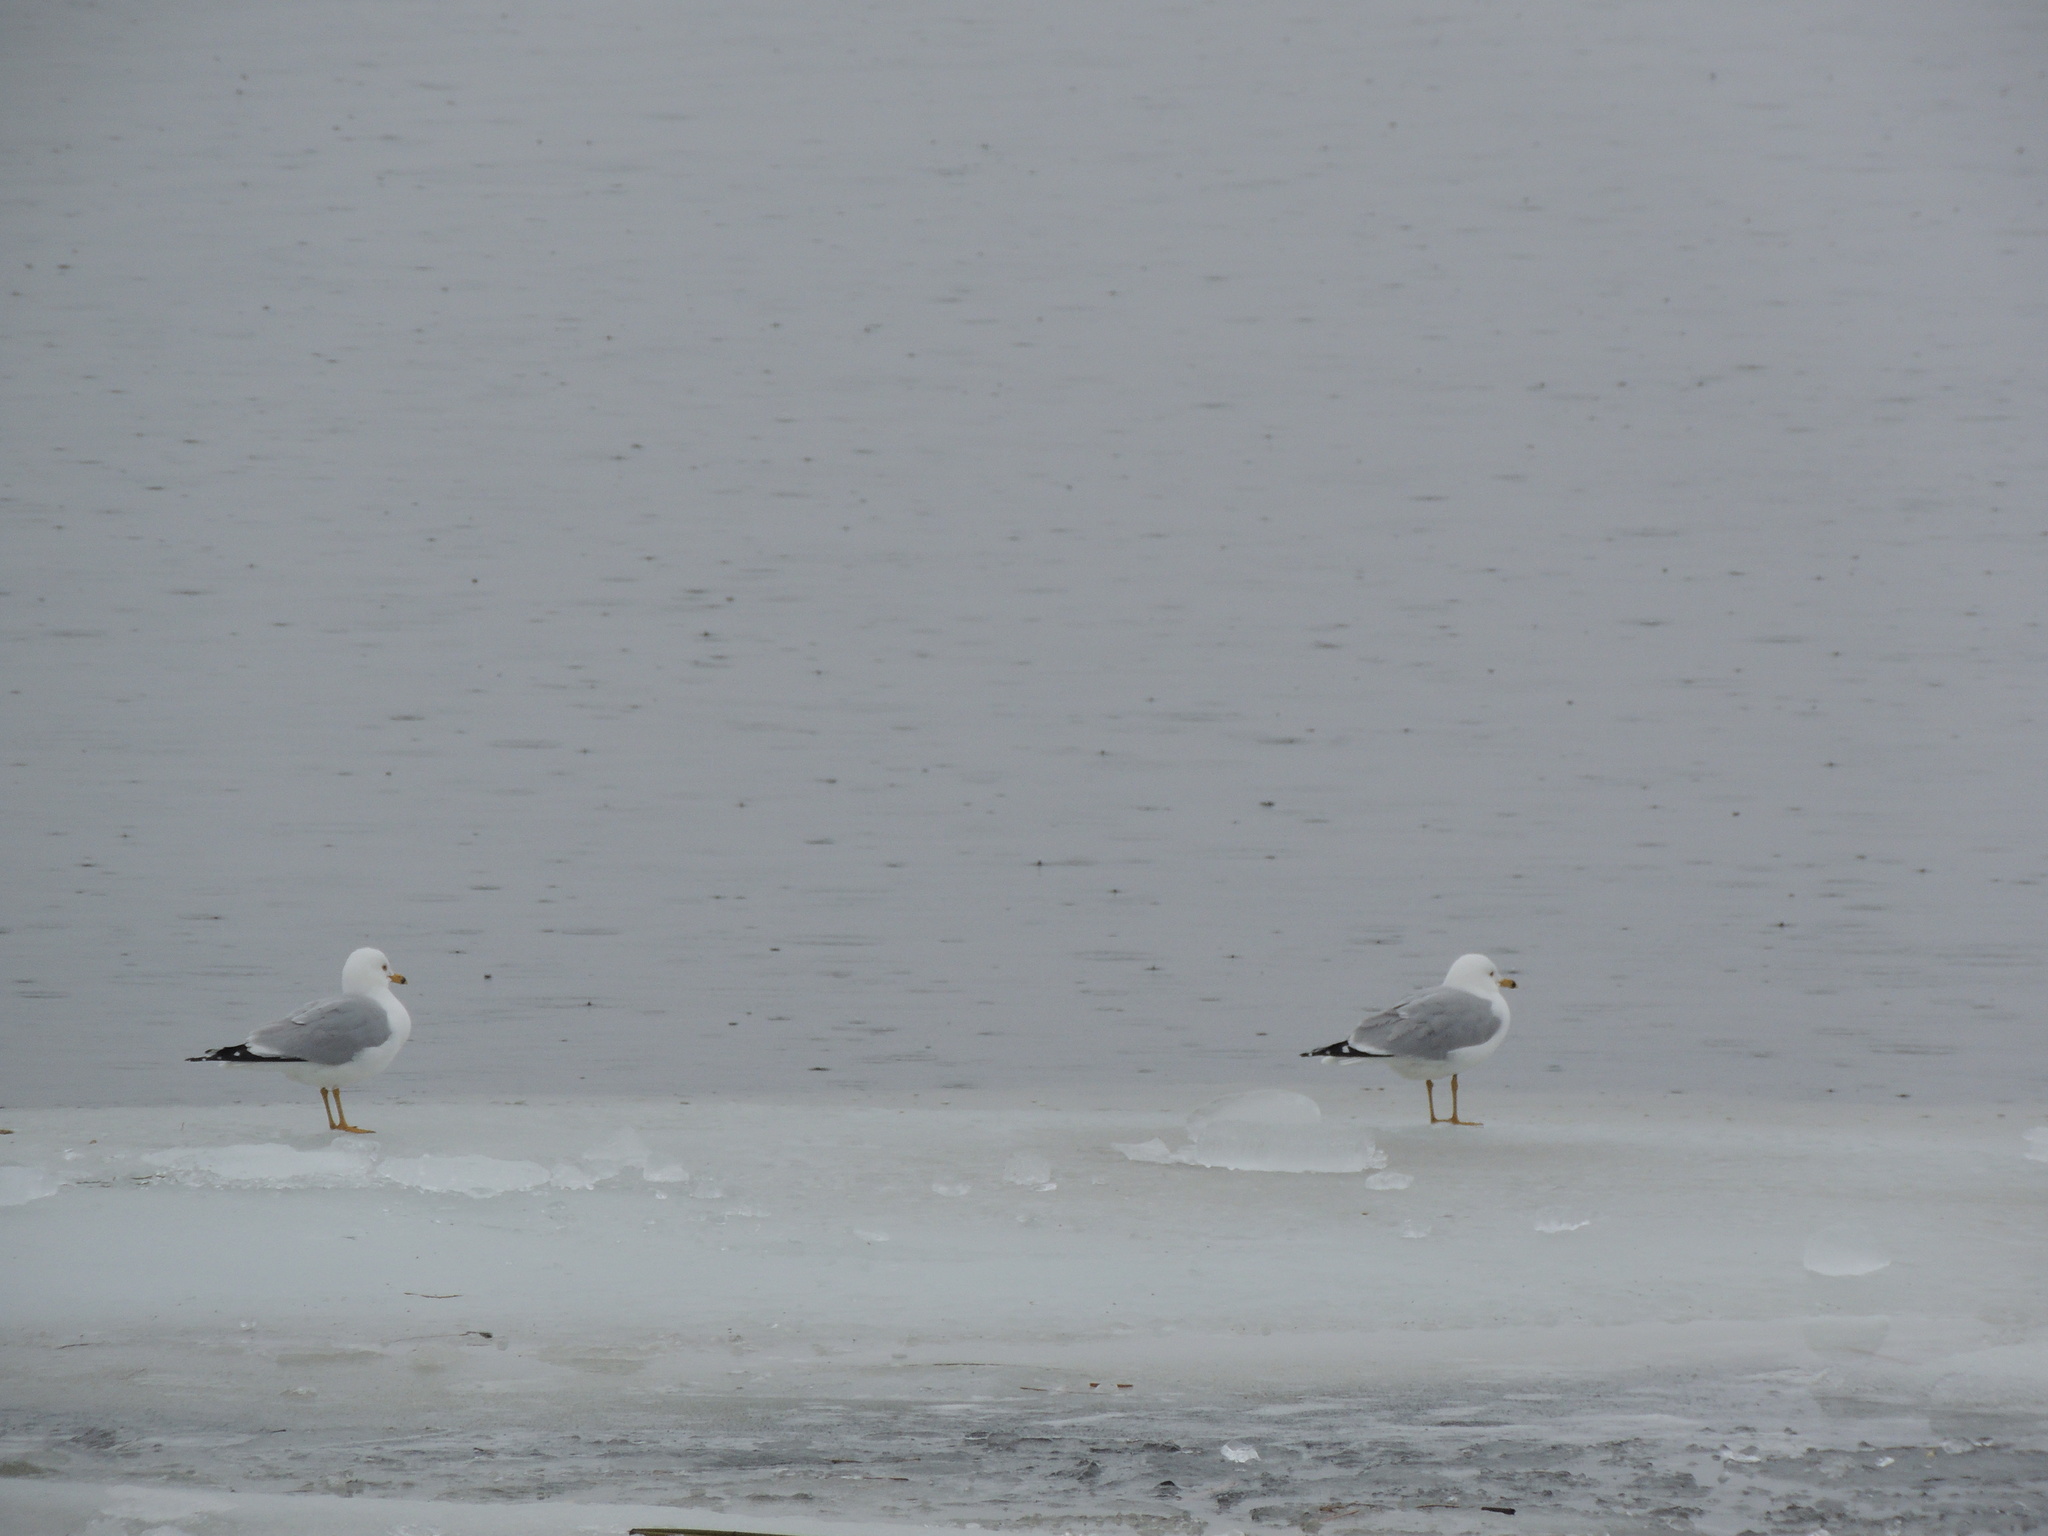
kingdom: Animalia
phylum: Chordata
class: Aves
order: Charadriiformes
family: Laridae
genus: Larus
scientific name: Larus delawarensis
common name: Ring-billed gull
